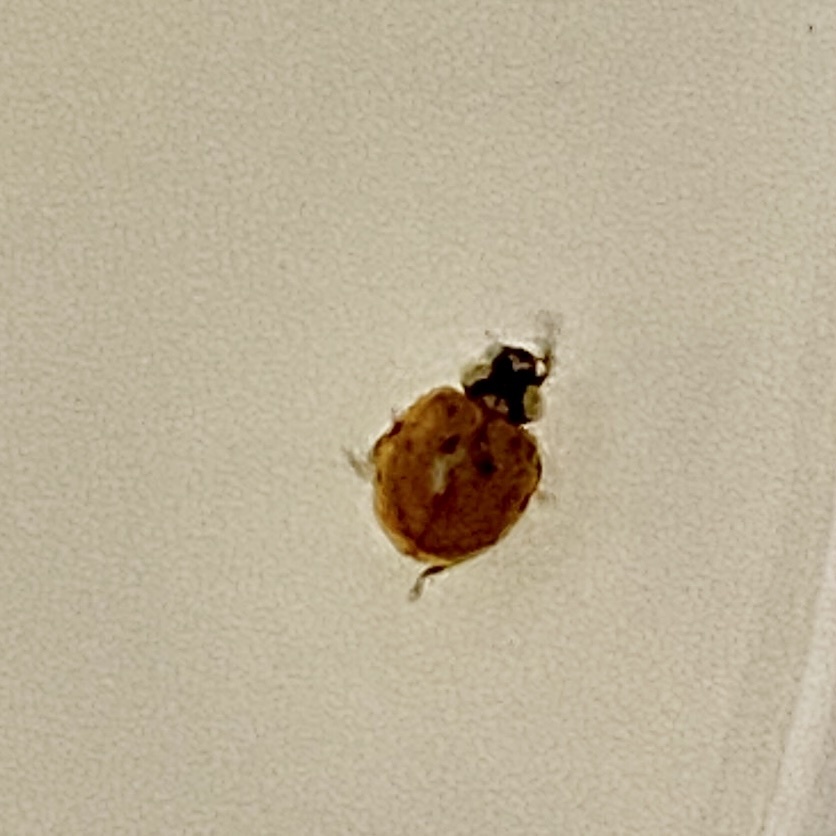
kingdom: Animalia
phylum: Arthropoda
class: Insecta
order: Coleoptera
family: Coccinellidae
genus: Harmonia
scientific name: Harmonia axyridis
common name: Harlequin ladybird
